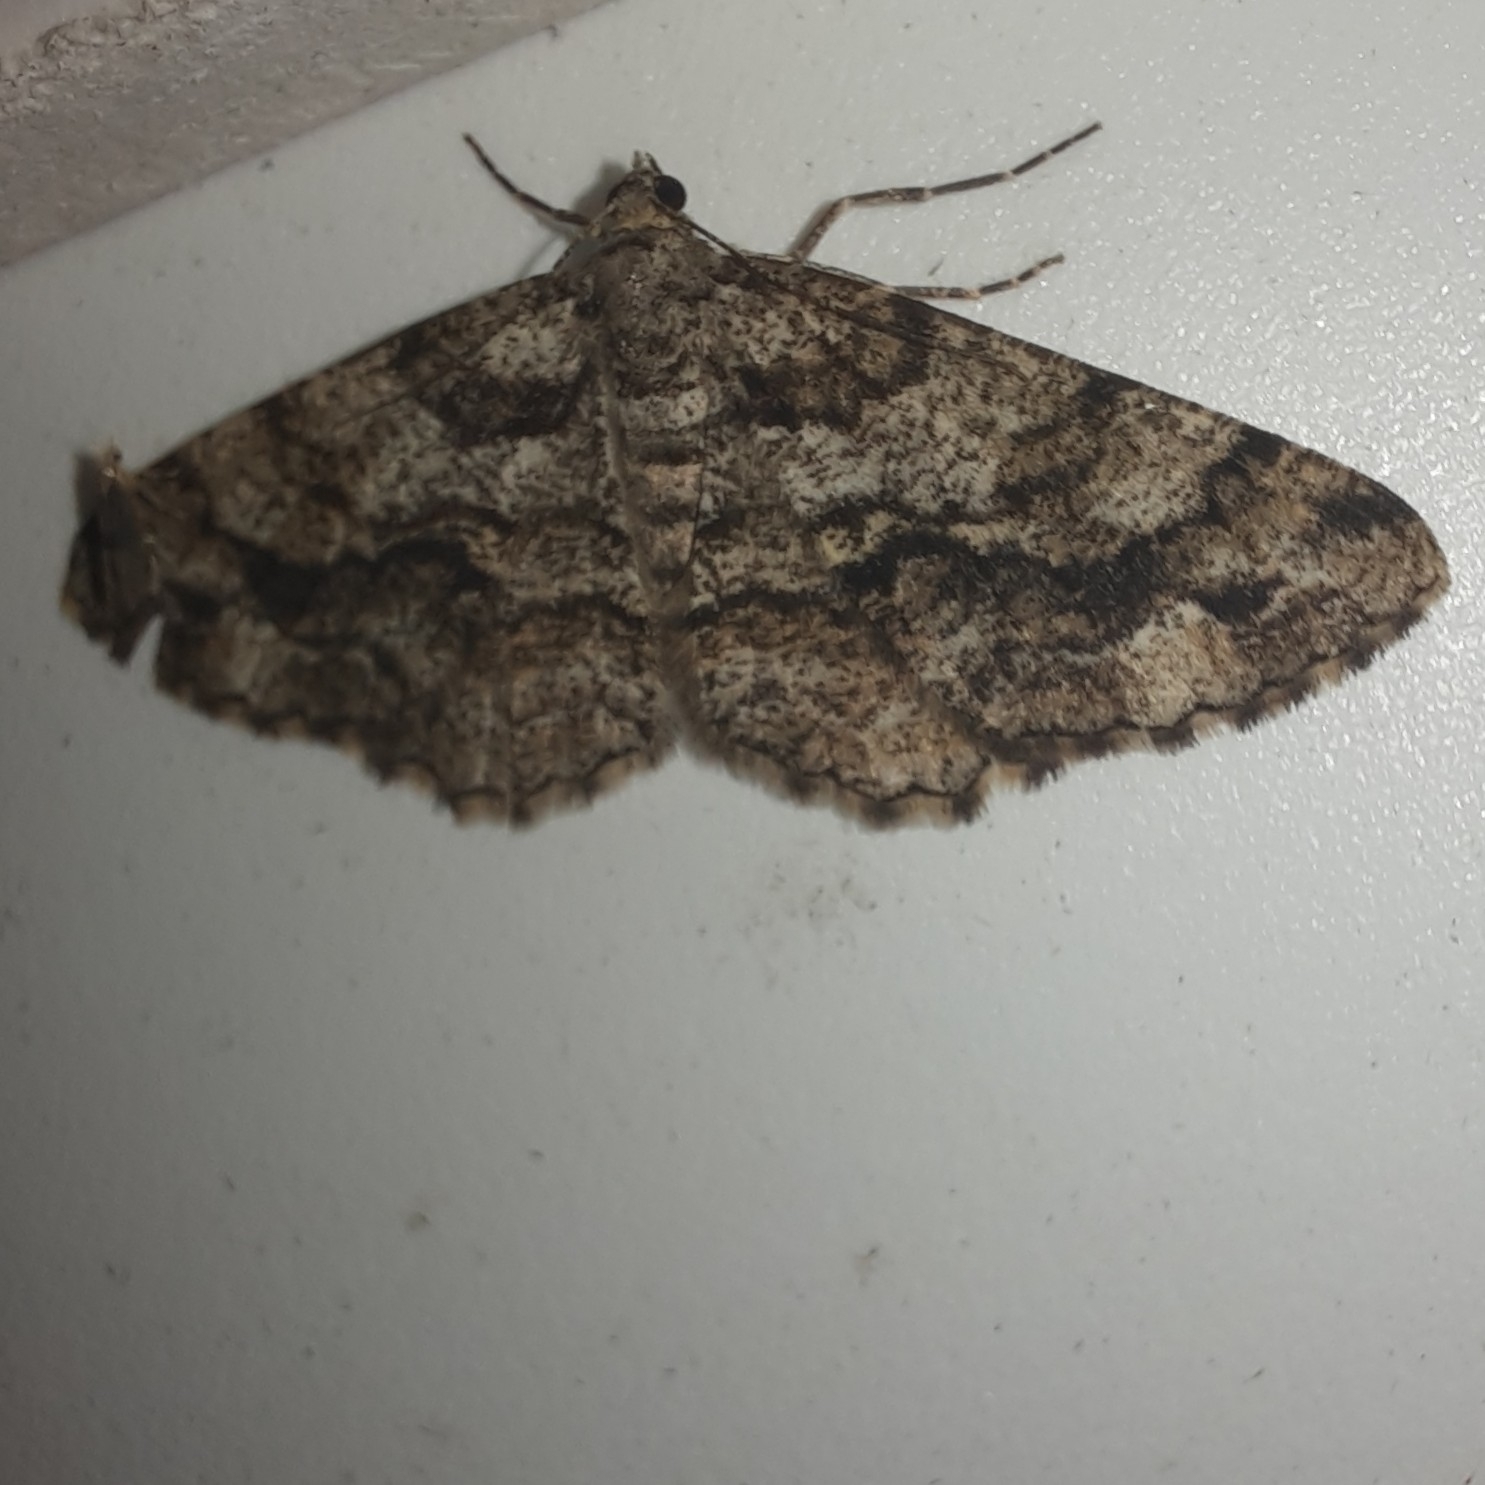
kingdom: Animalia
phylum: Arthropoda
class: Insecta
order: Lepidoptera
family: Geometridae
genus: Peribatodes
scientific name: Peribatodes secundaria
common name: Feathered beauty
